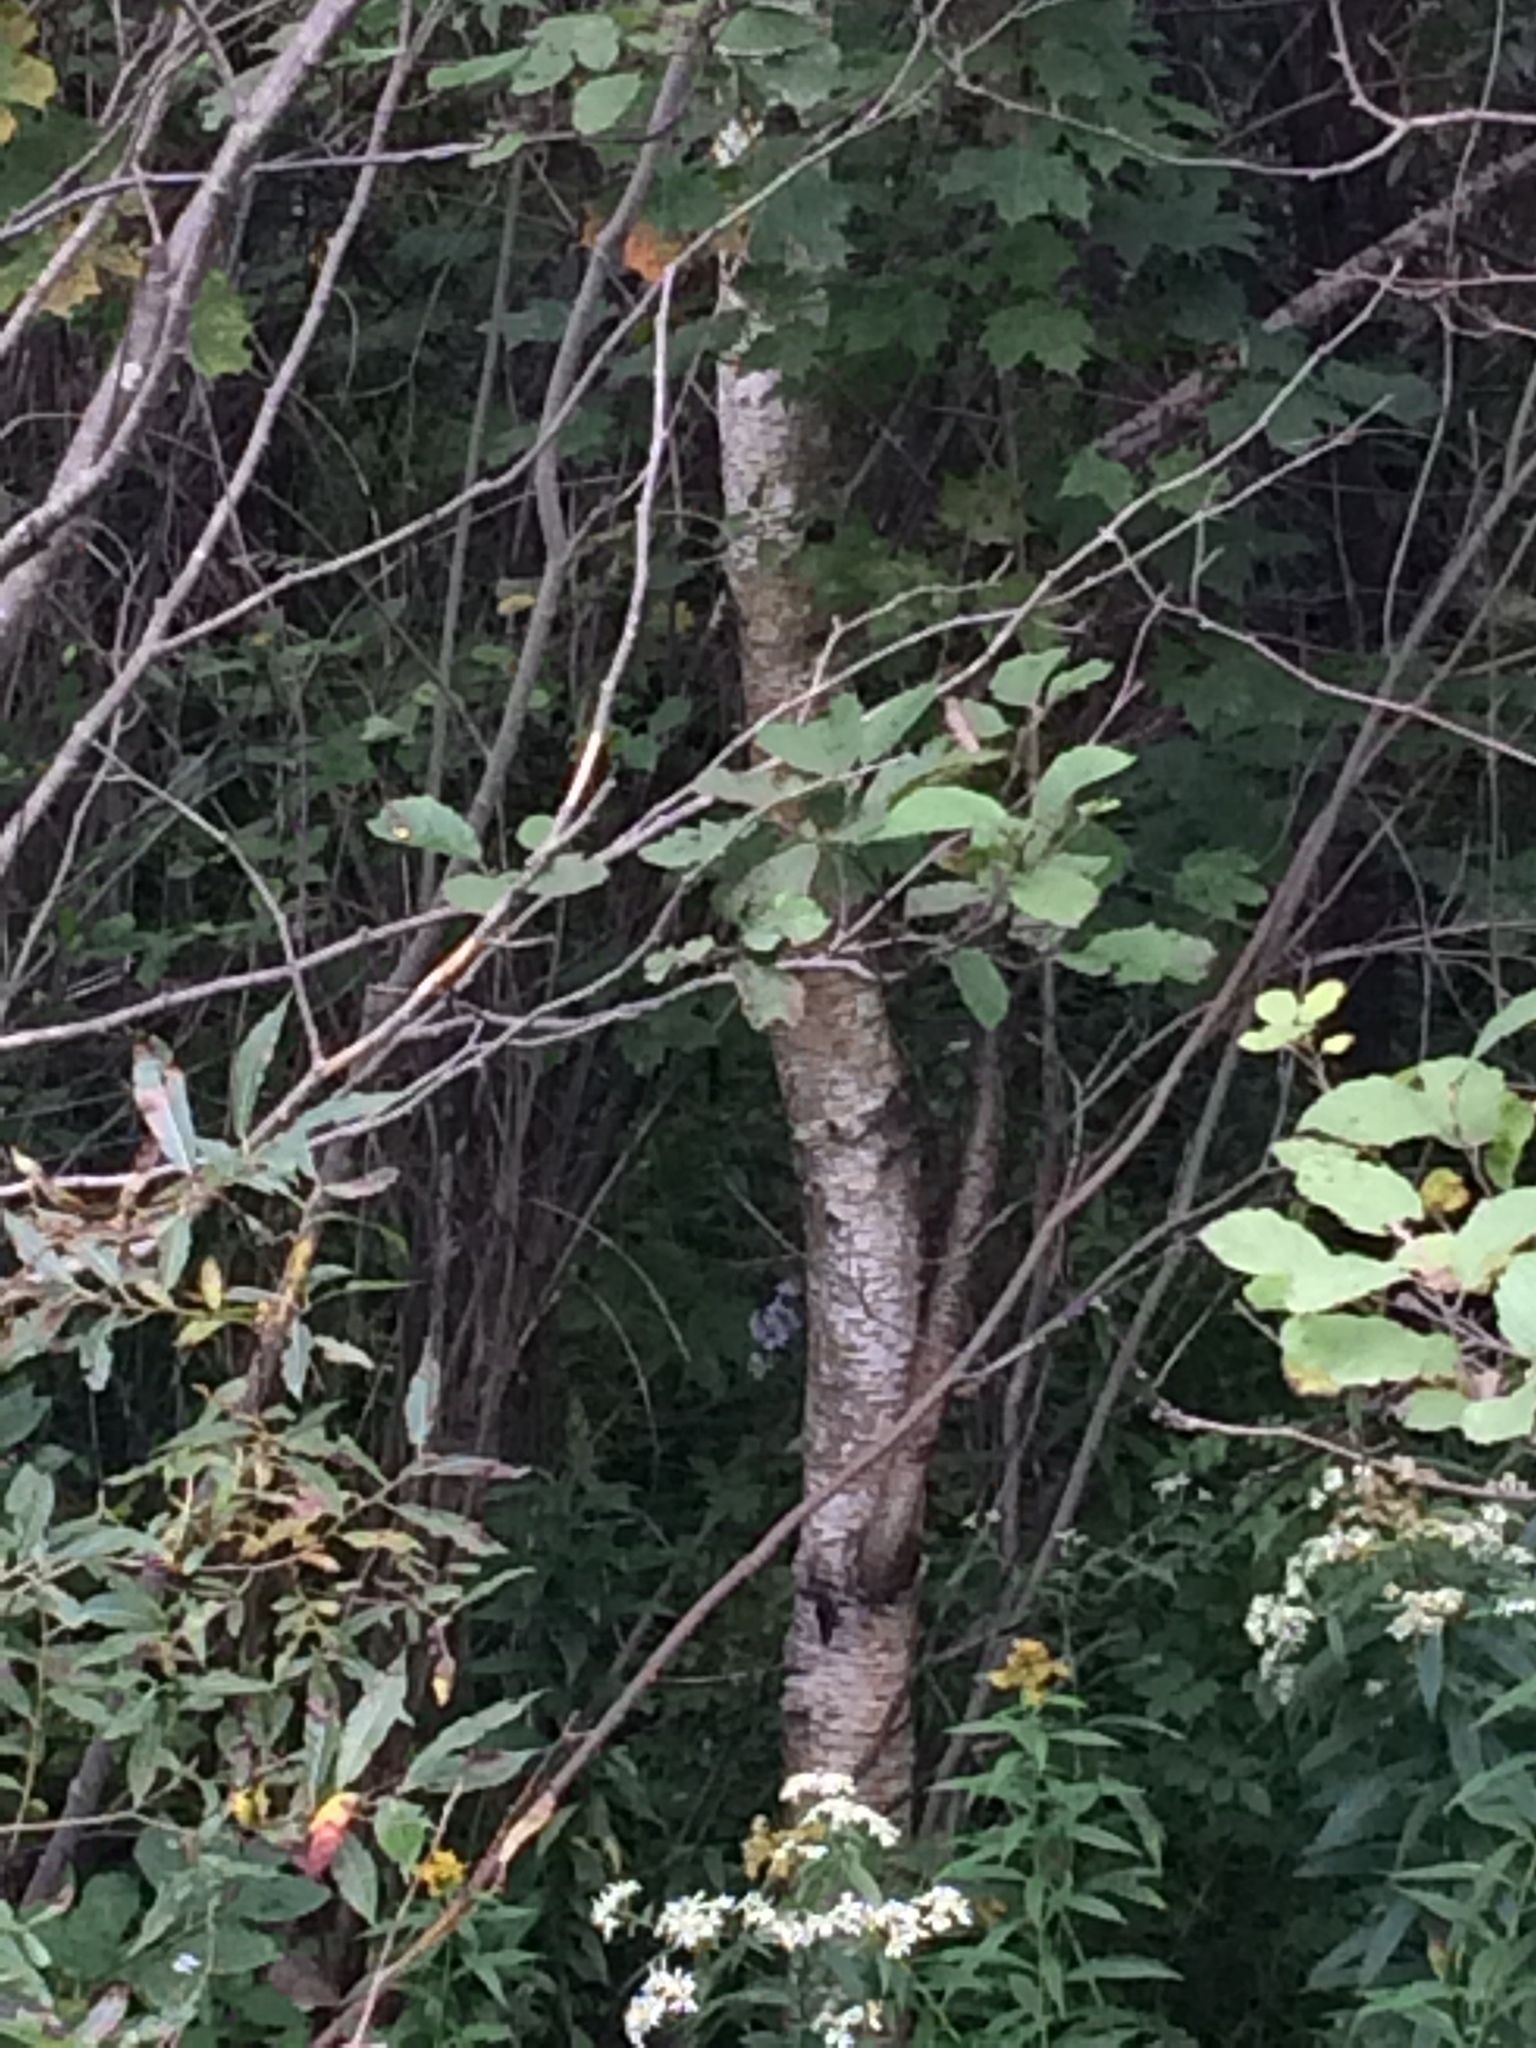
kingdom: Plantae
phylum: Tracheophyta
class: Magnoliopsida
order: Fagales
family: Betulaceae
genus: Betula
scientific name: Betula populifolia
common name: Fire birch
